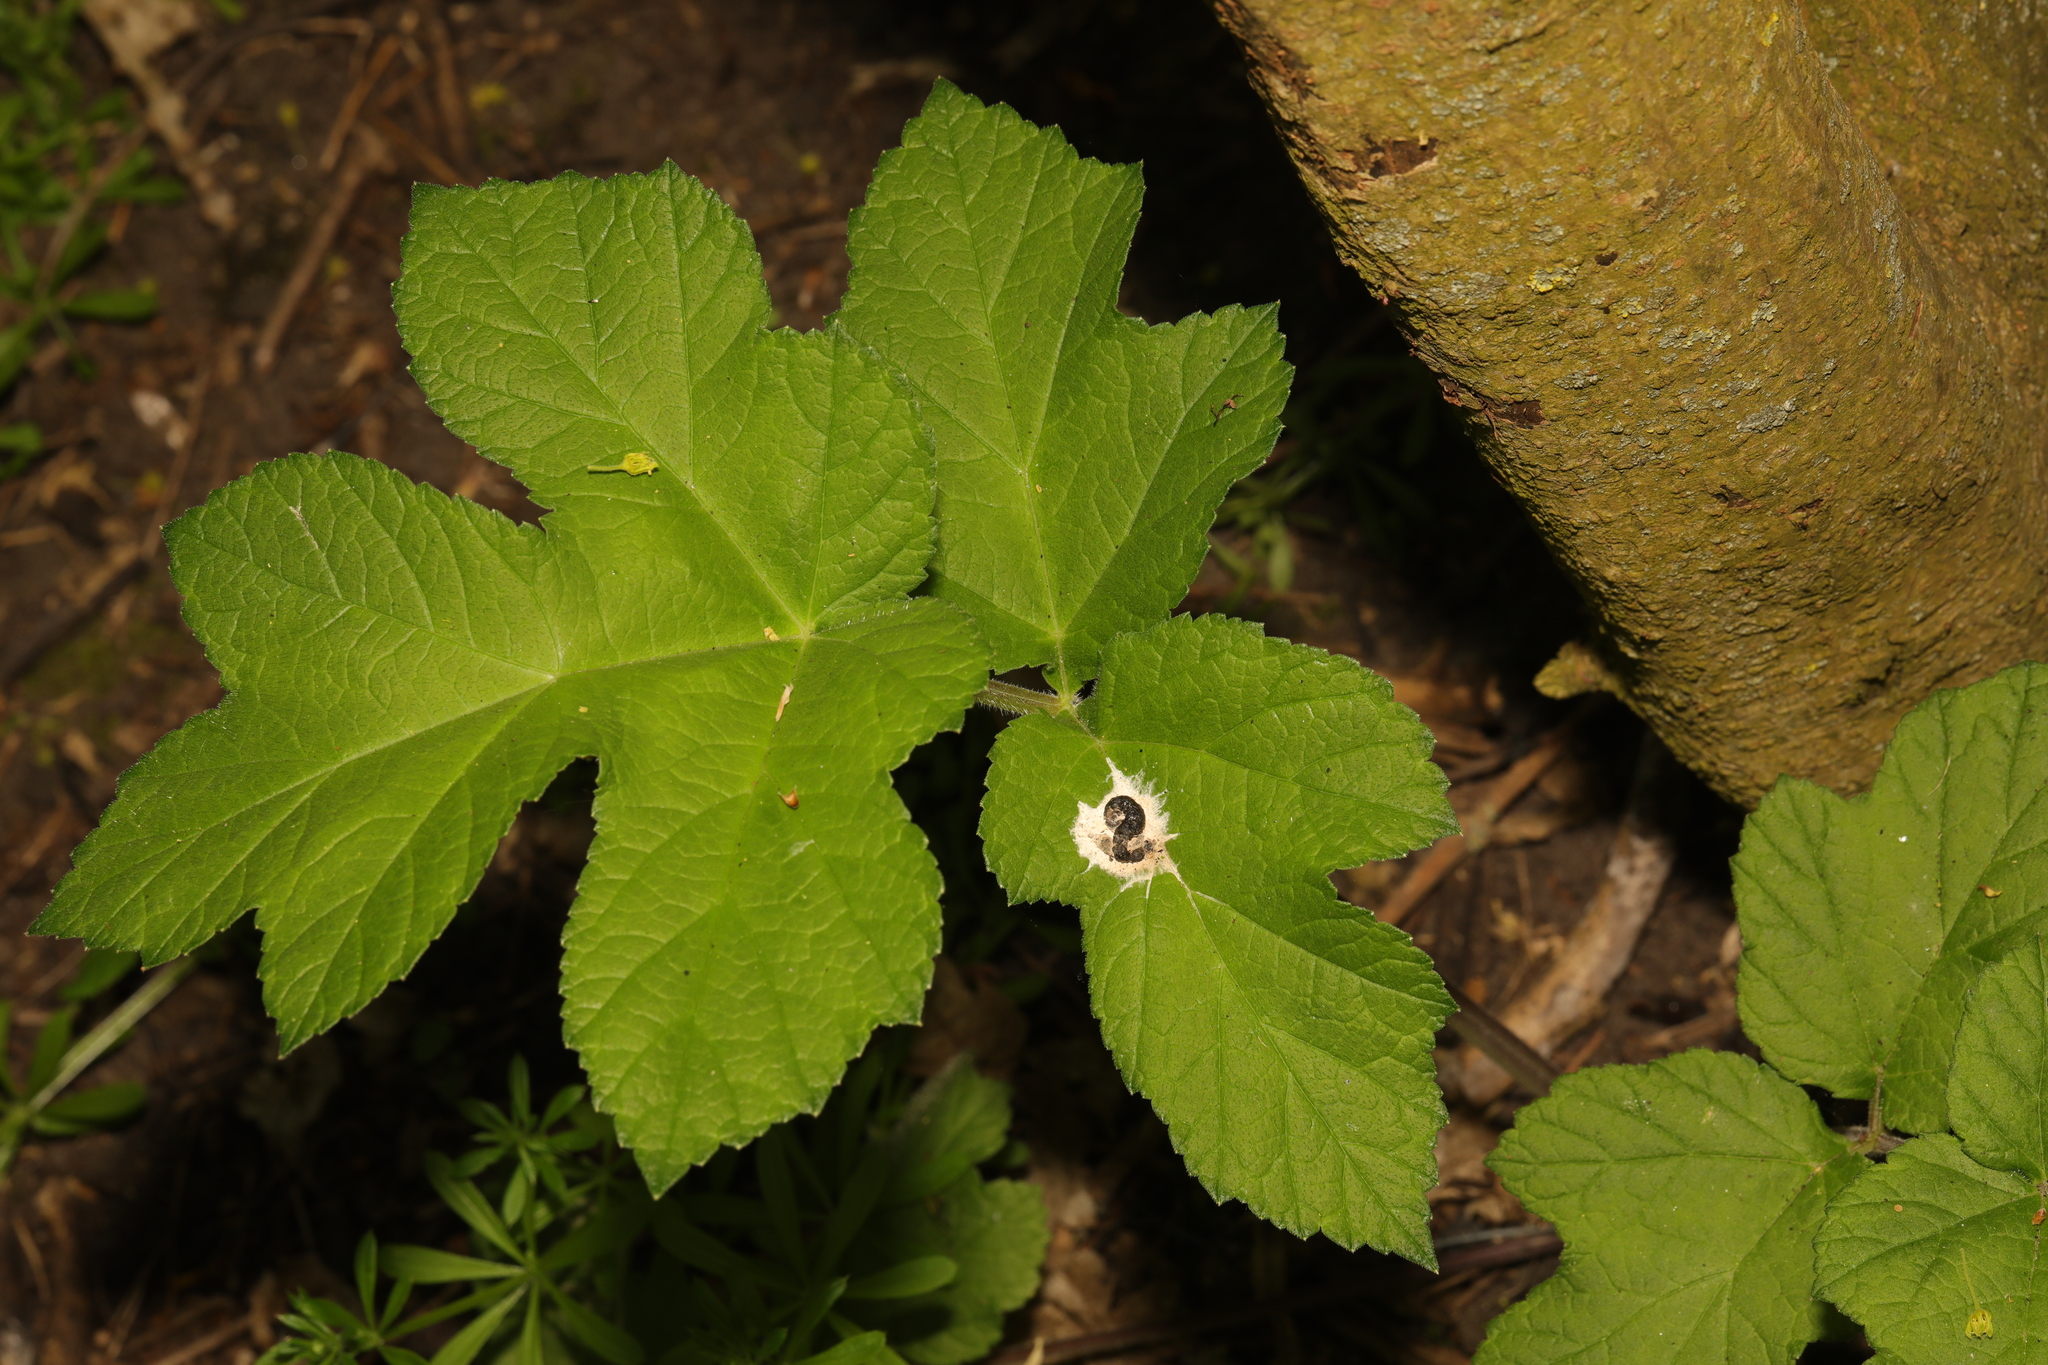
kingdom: Plantae
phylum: Tracheophyta
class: Magnoliopsida
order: Apiales
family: Apiaceae
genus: Heracleum
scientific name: Heracleum sphondylium
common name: Hogweed
